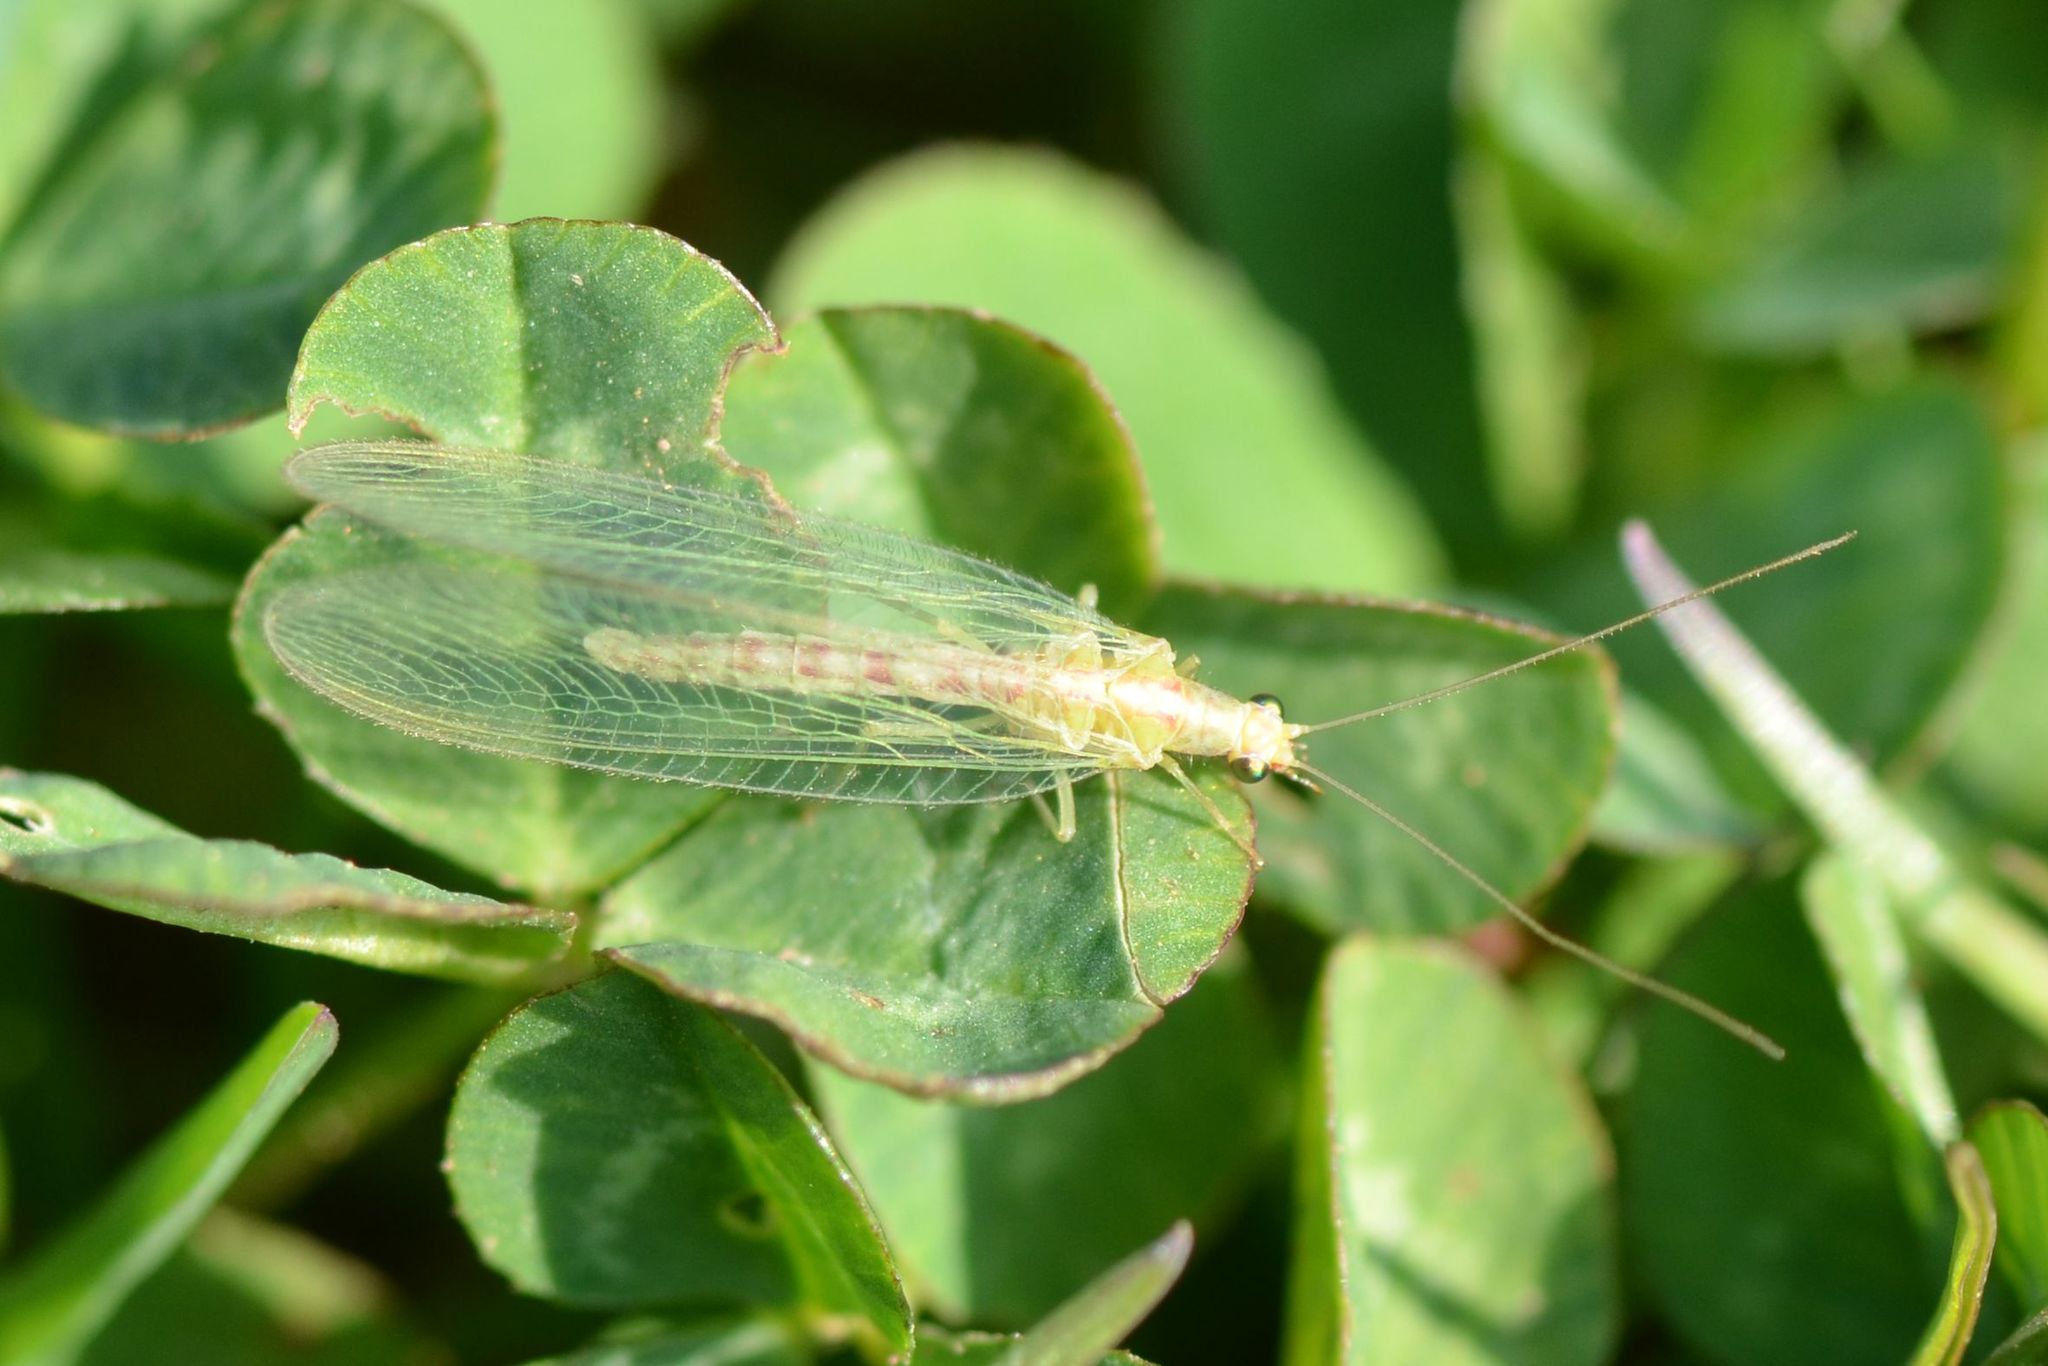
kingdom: Animalia
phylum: Arthropoda
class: Insecta
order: Neuroptera
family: Chrysopidae
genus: Chrysoperla
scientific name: Chrysoperla
